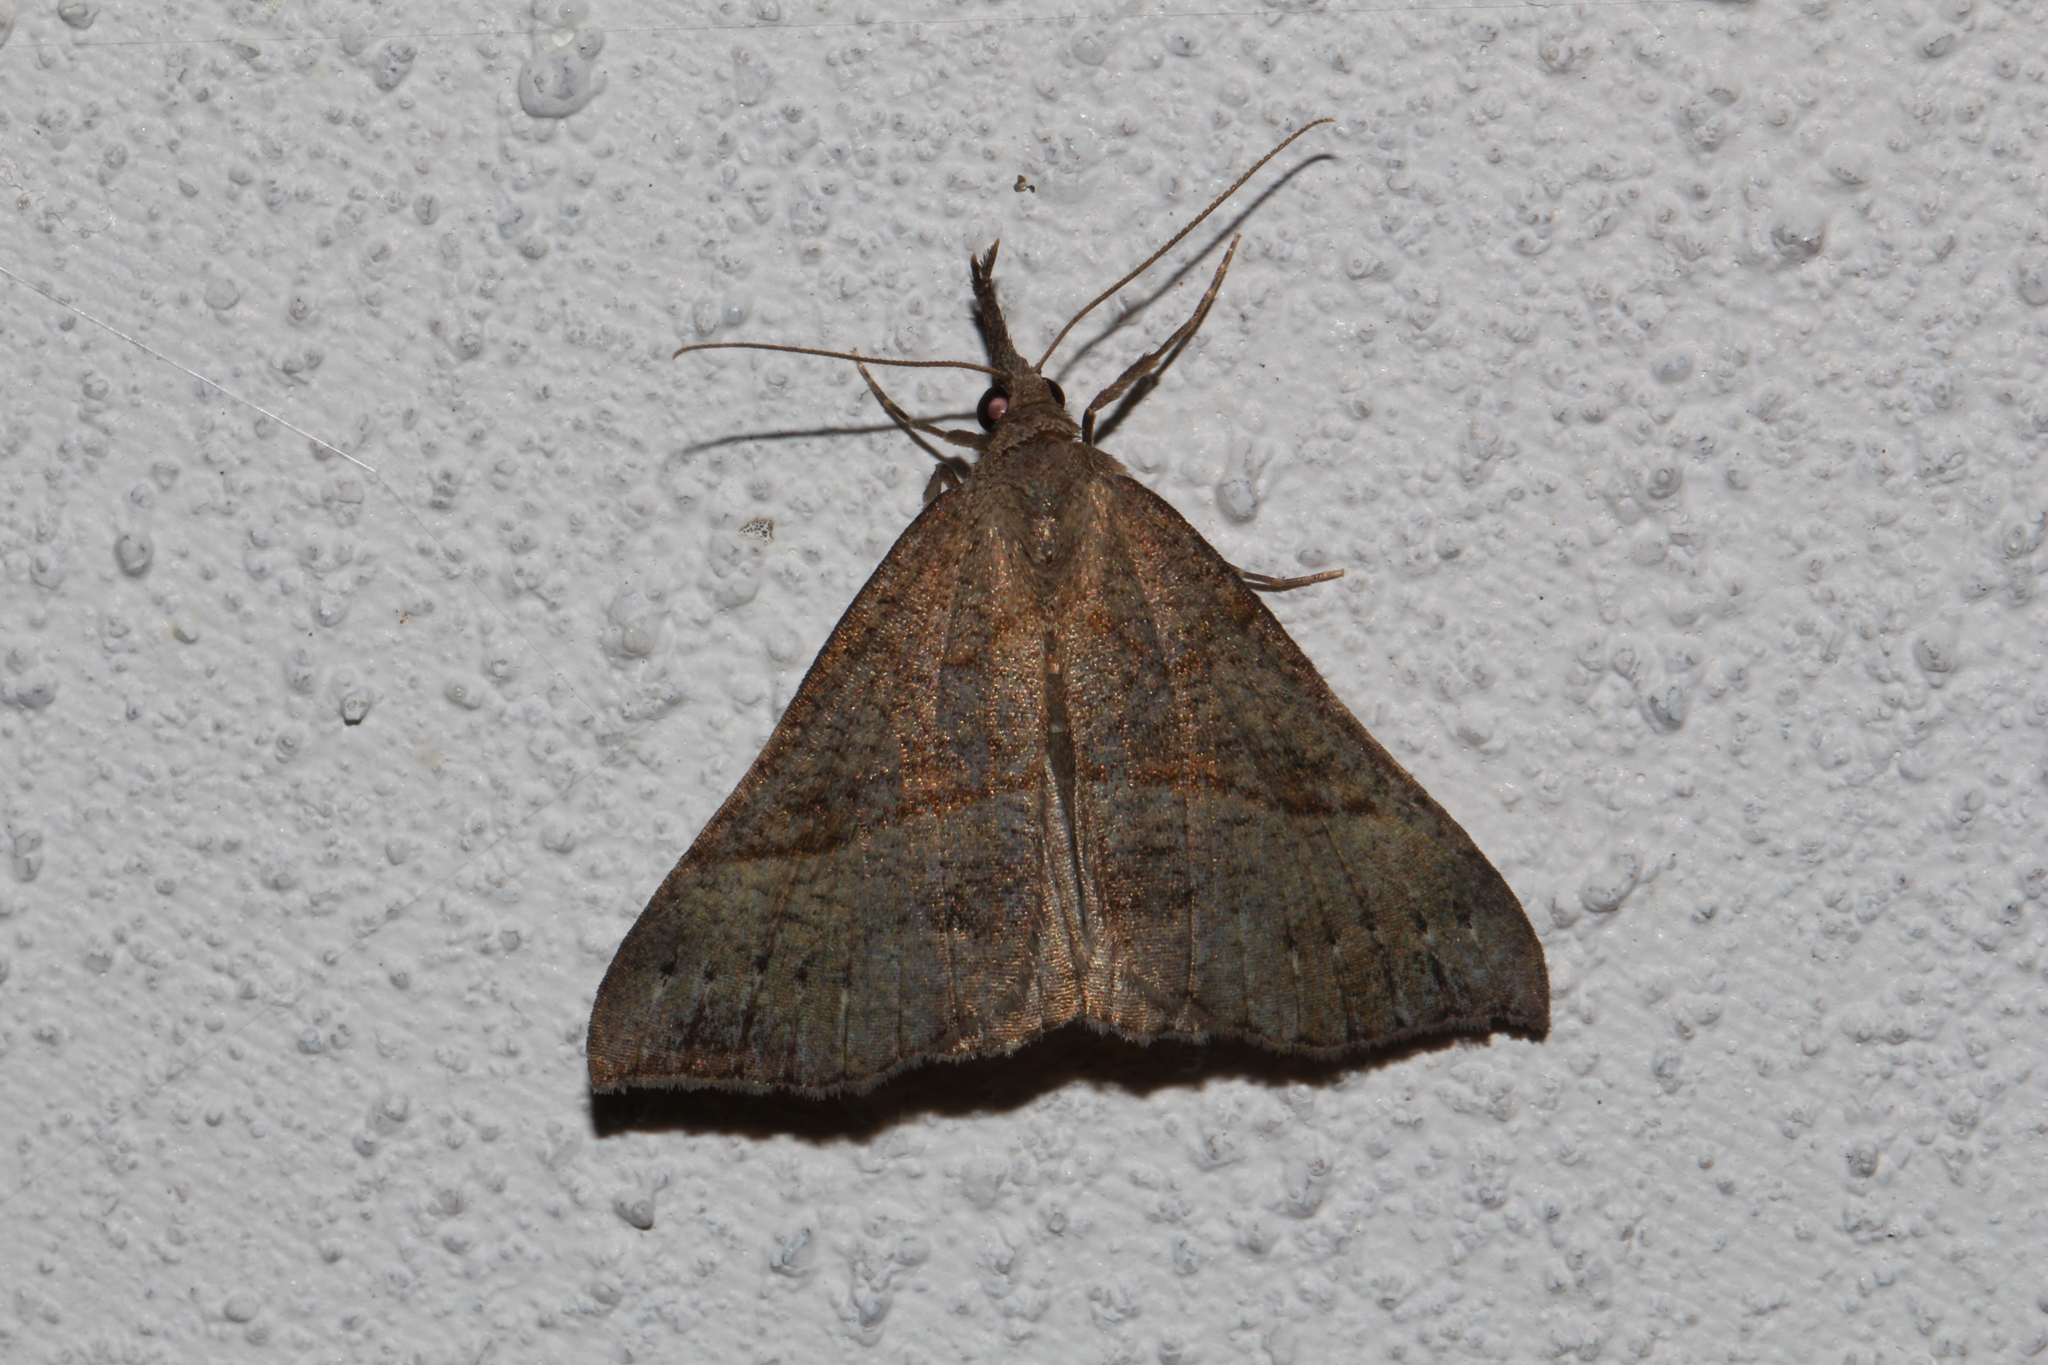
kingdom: Animalia
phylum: Arthropoda
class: Insecta
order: Lepidoptera
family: Erebidae
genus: Hypena
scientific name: Hypena proboscidalis
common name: Snout
